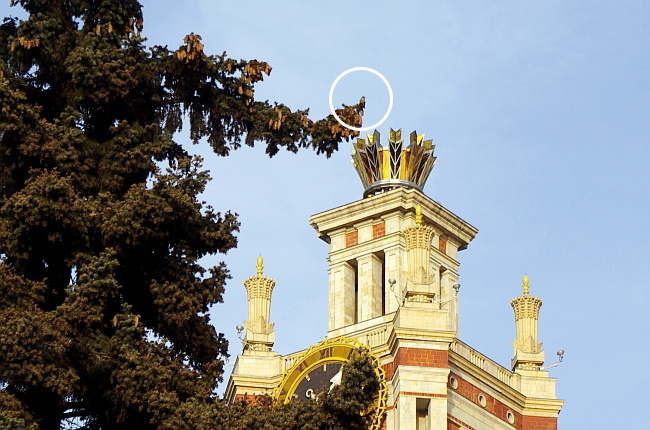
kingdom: Animalia
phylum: Chordata
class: Aves
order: Passeriformes
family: Fringillidae
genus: Loxia
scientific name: Loxia leucoptera
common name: Two-barred crossbill
